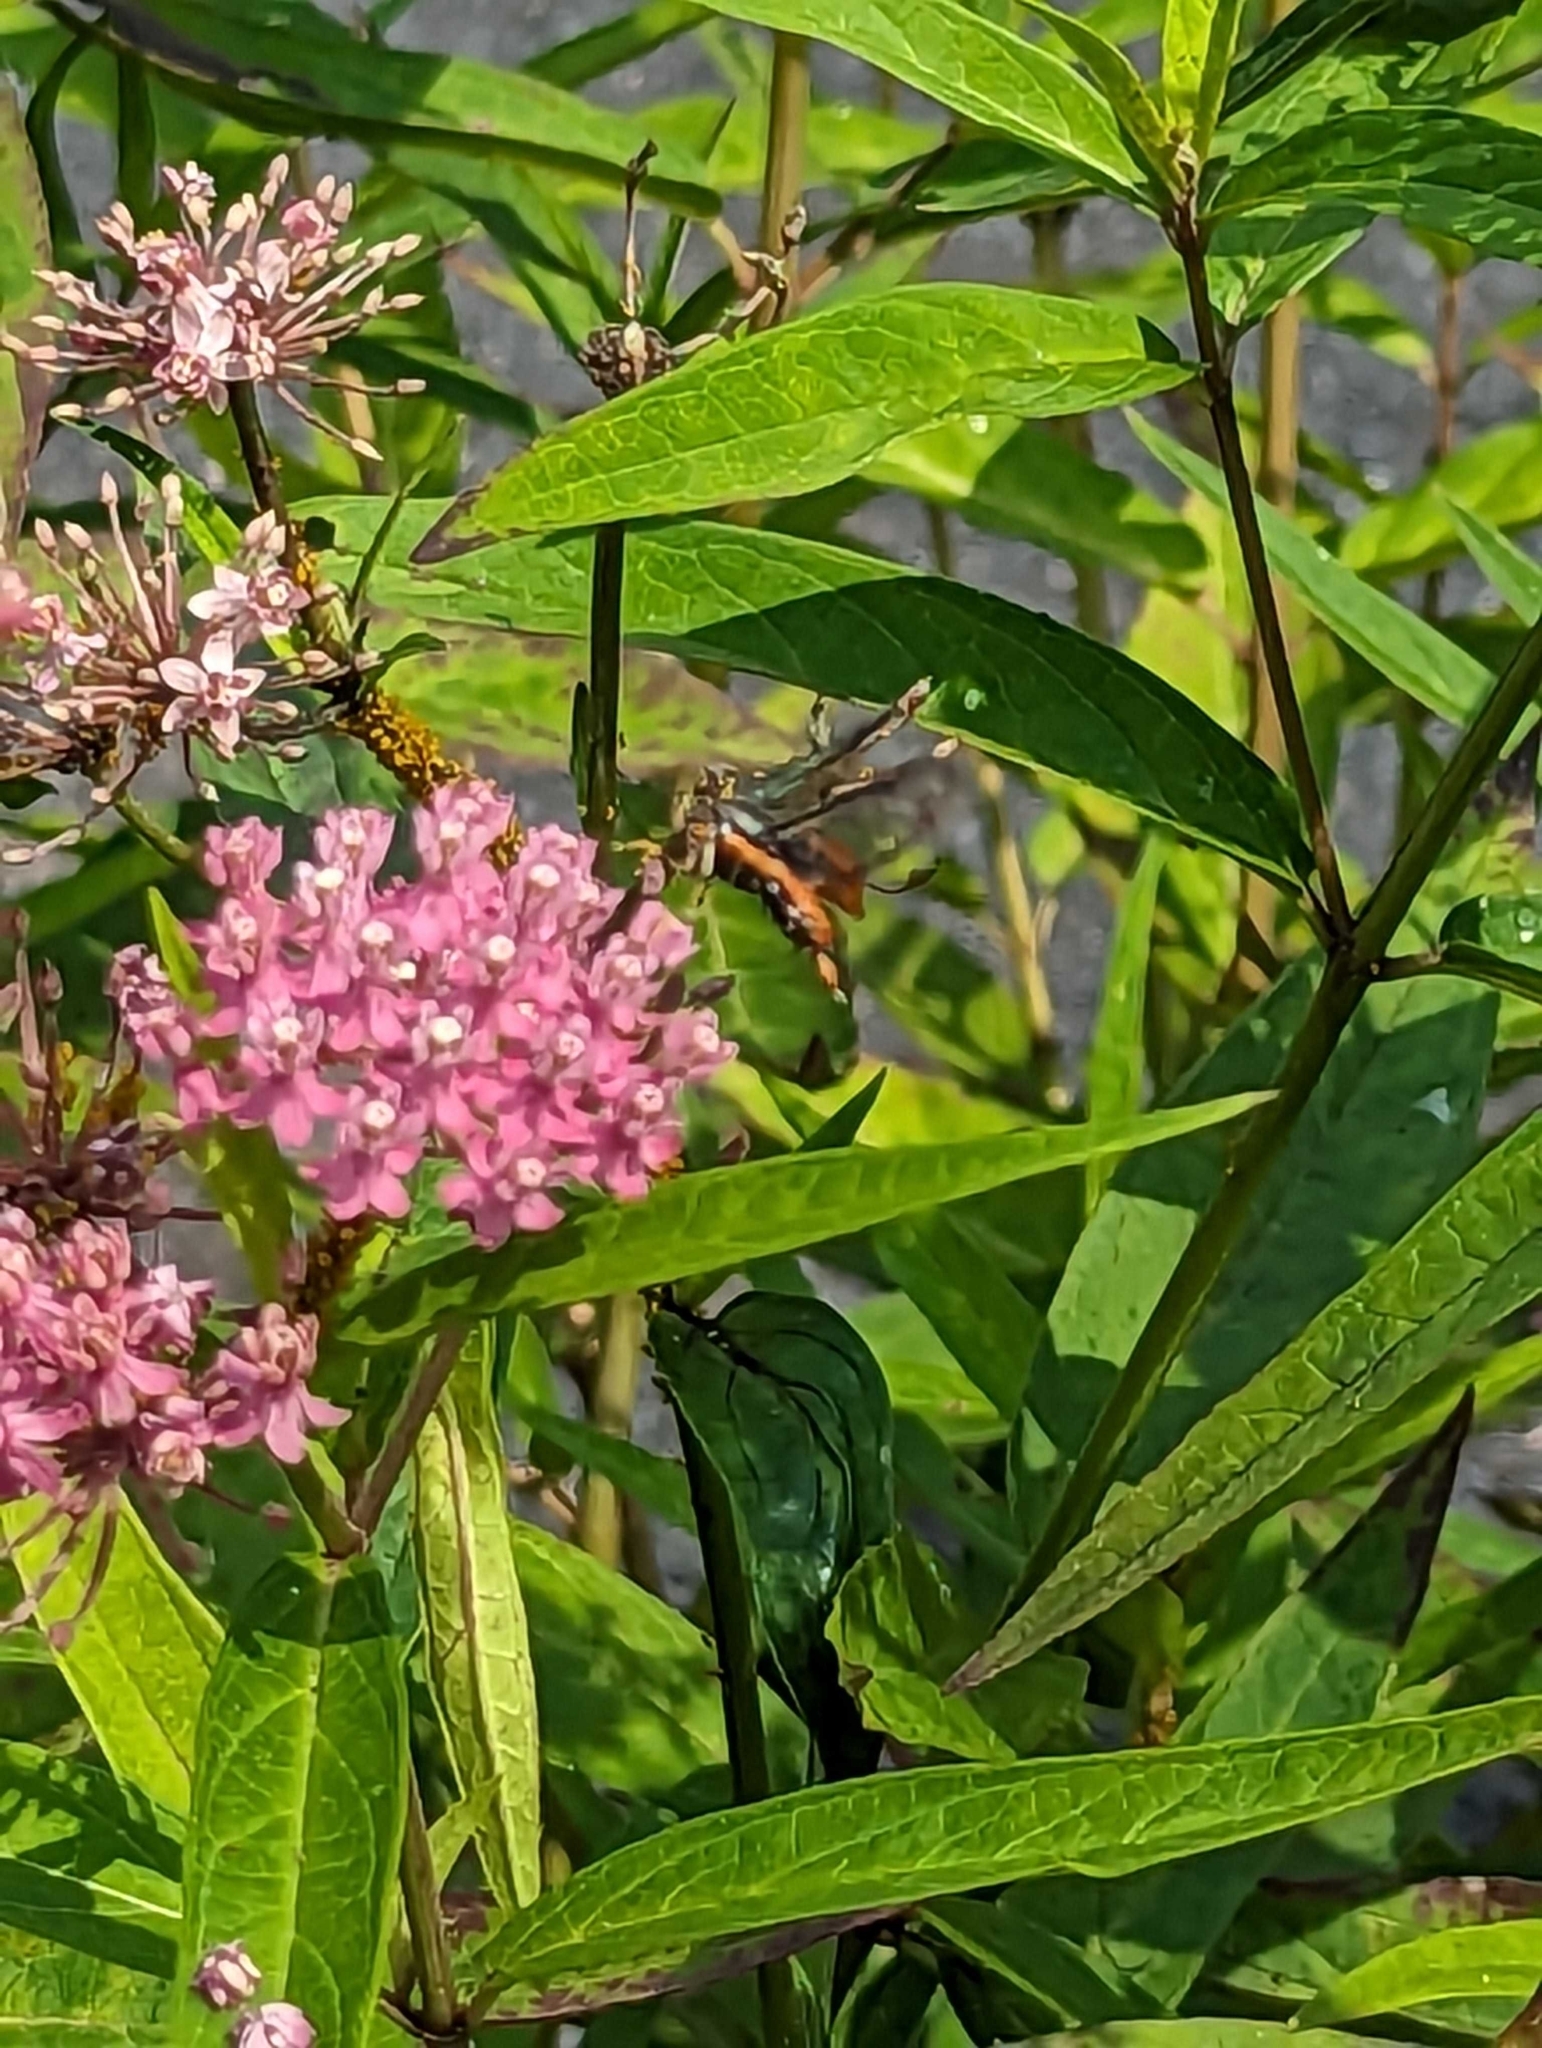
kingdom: Animalia
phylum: Arthropoda
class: Insecta
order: Lepidoptera
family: Sesiidae
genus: Eichlinia
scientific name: Eichlinia cucurbitae
